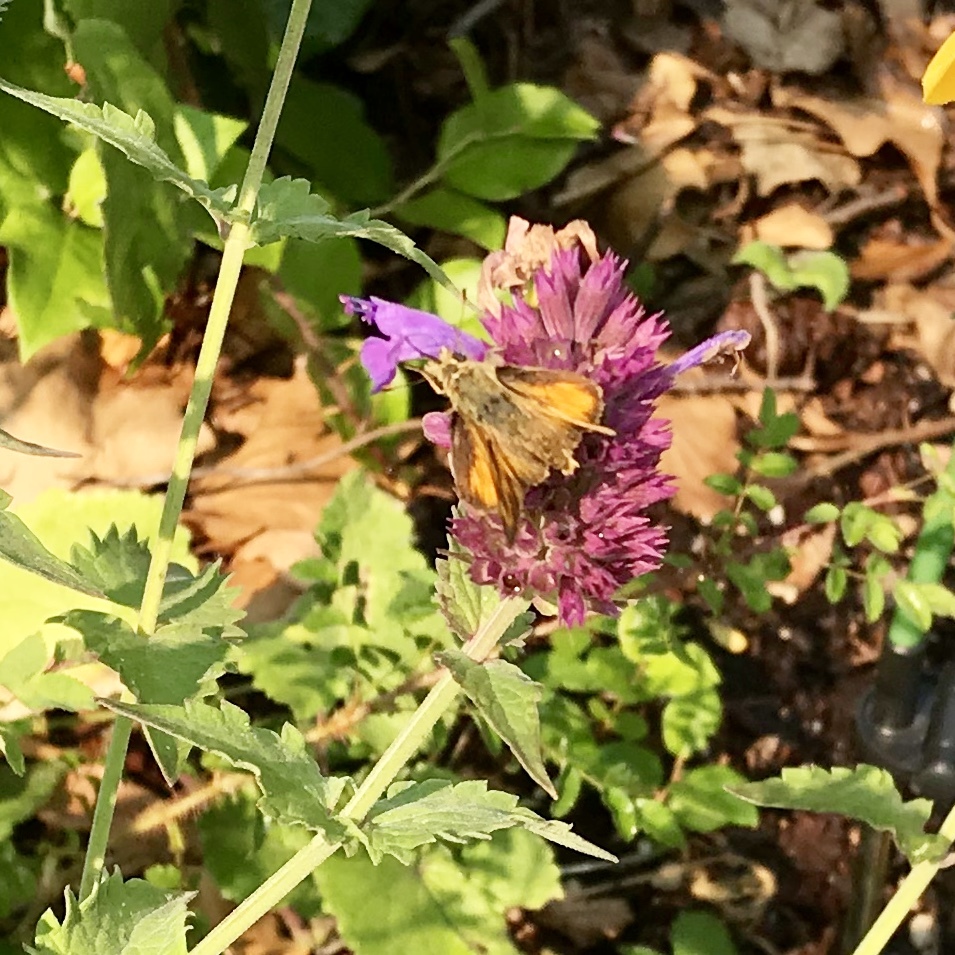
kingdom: Animalia
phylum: Arthropoda
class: Insecta
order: Lepidoptera
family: Hesperiidae
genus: Ochlodes
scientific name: Ochlodes sylvanoides
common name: Woodland skipper
